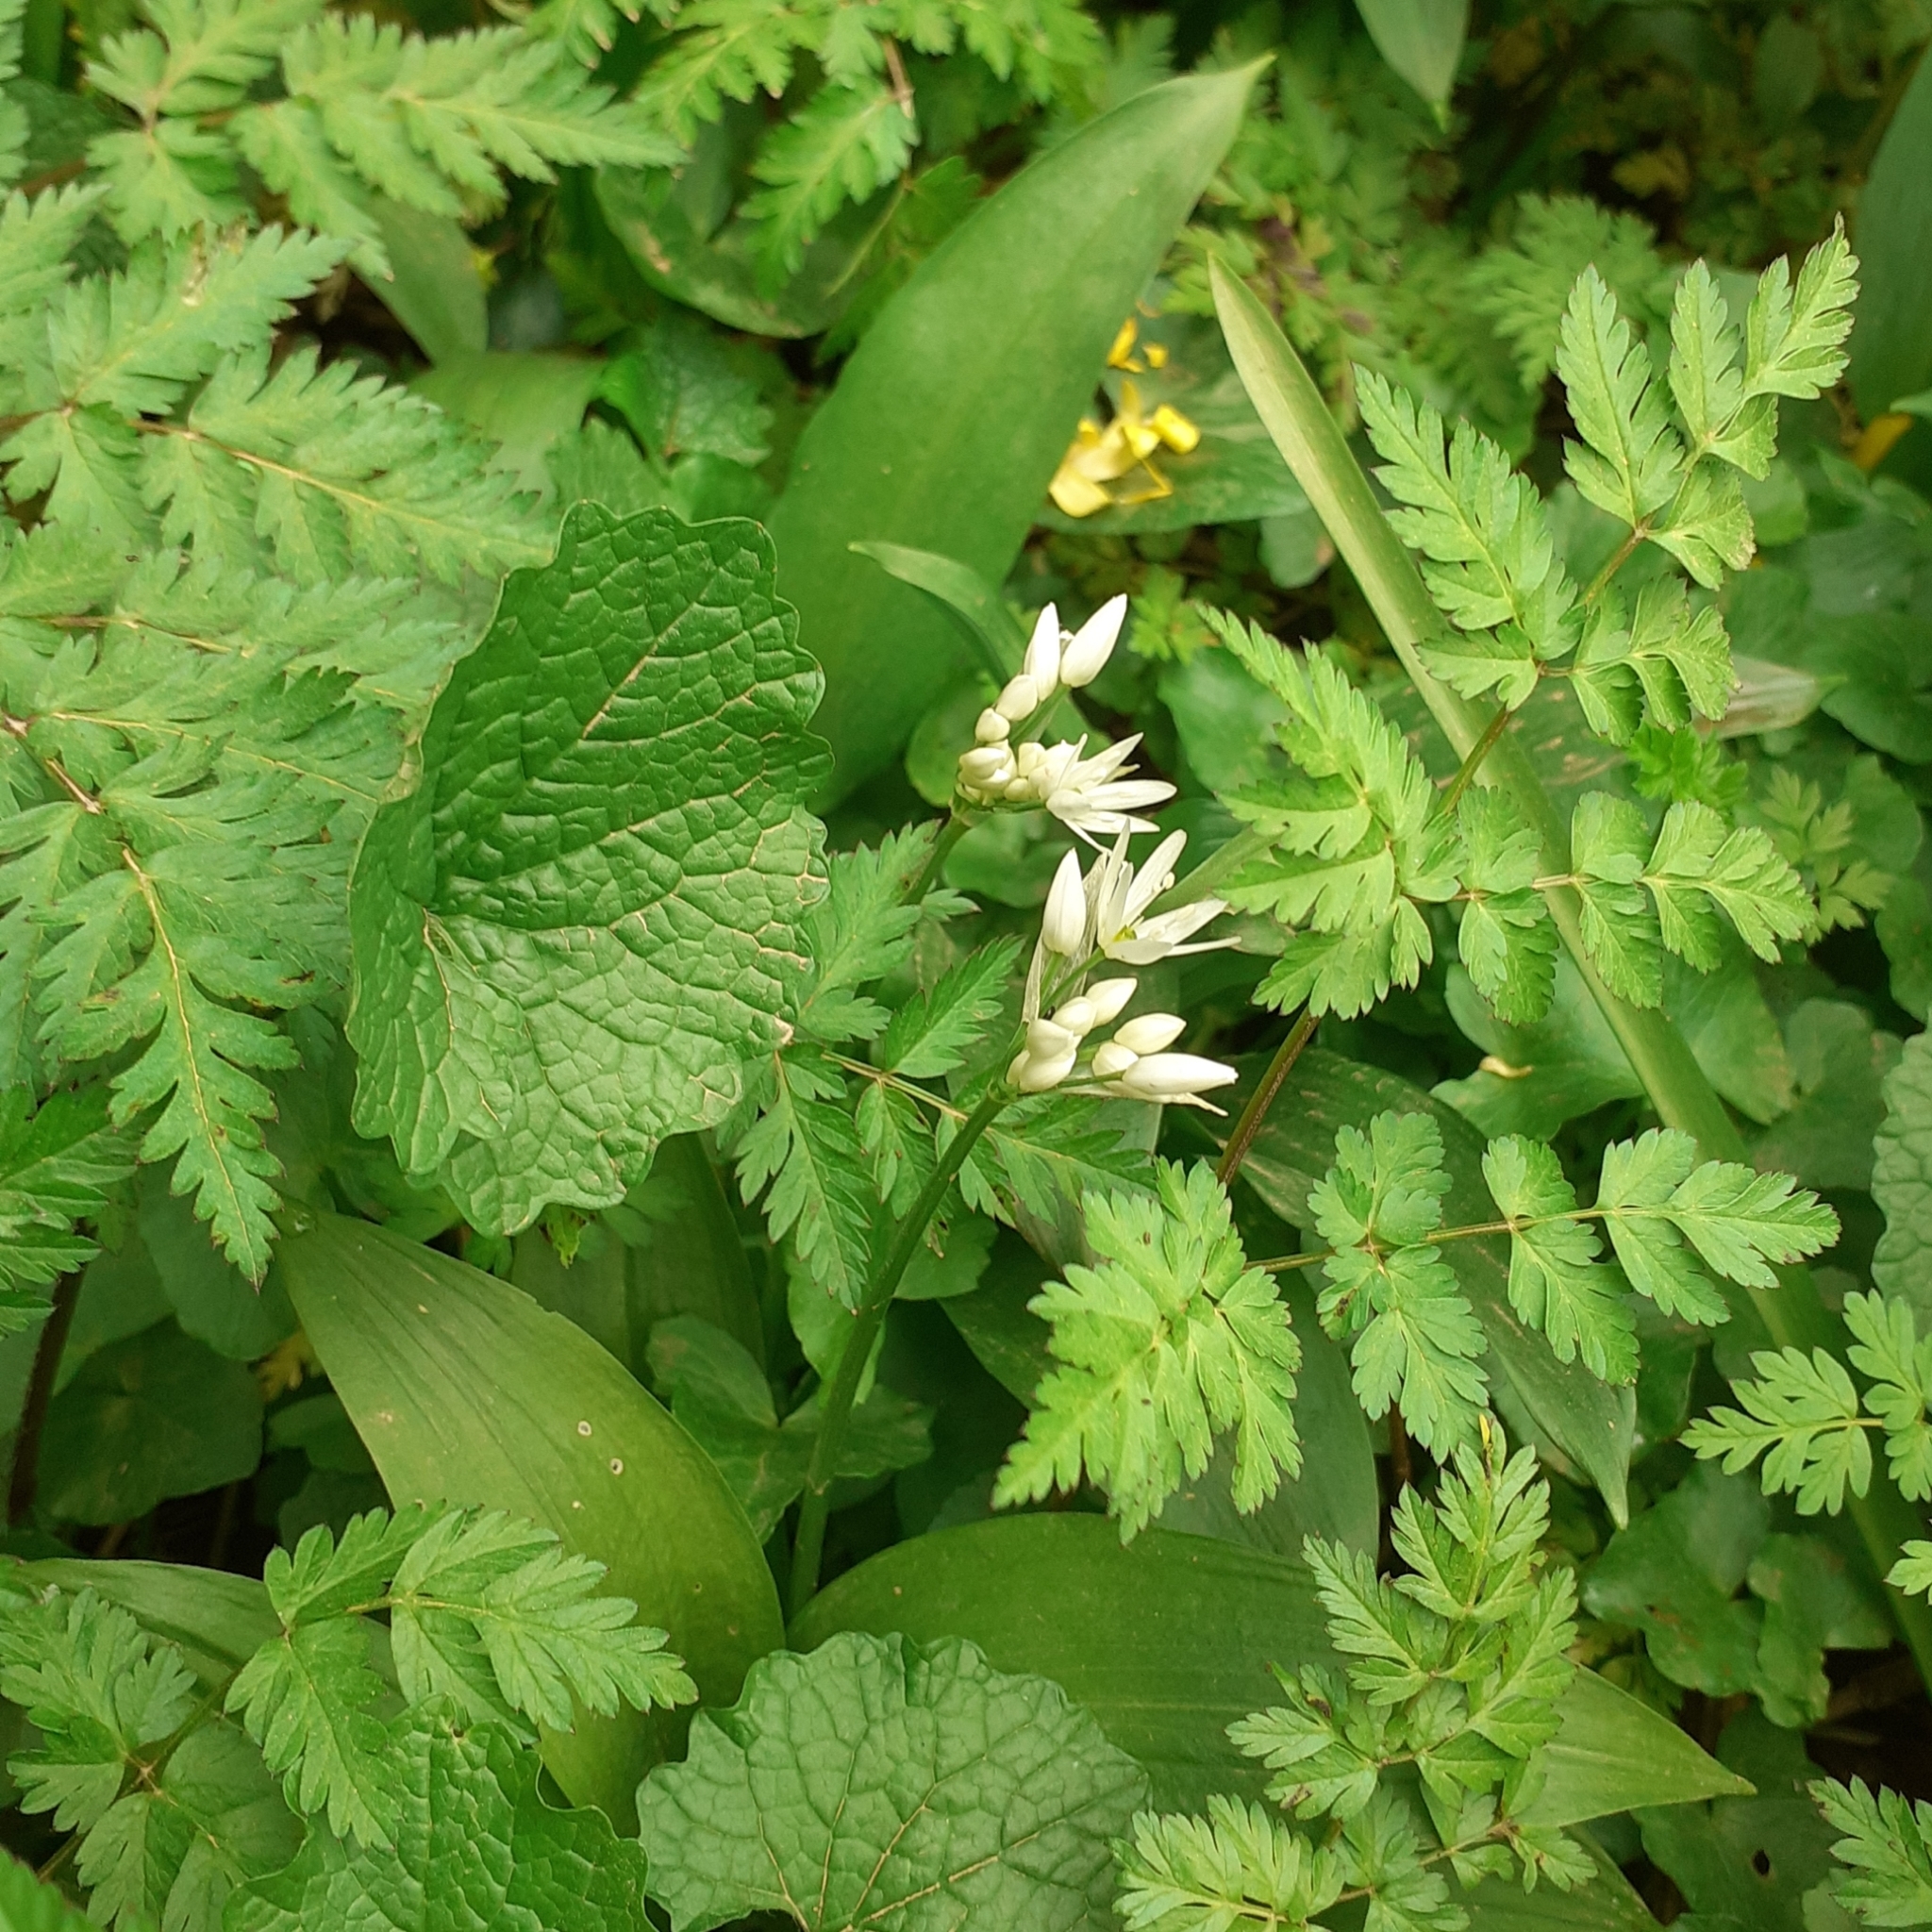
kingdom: Plantae
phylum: Tracheophyta
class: Liliopsida
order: Asparagales
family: Amaryllidaceae
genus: Allium
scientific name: Allium ursinum
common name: Ramsons
